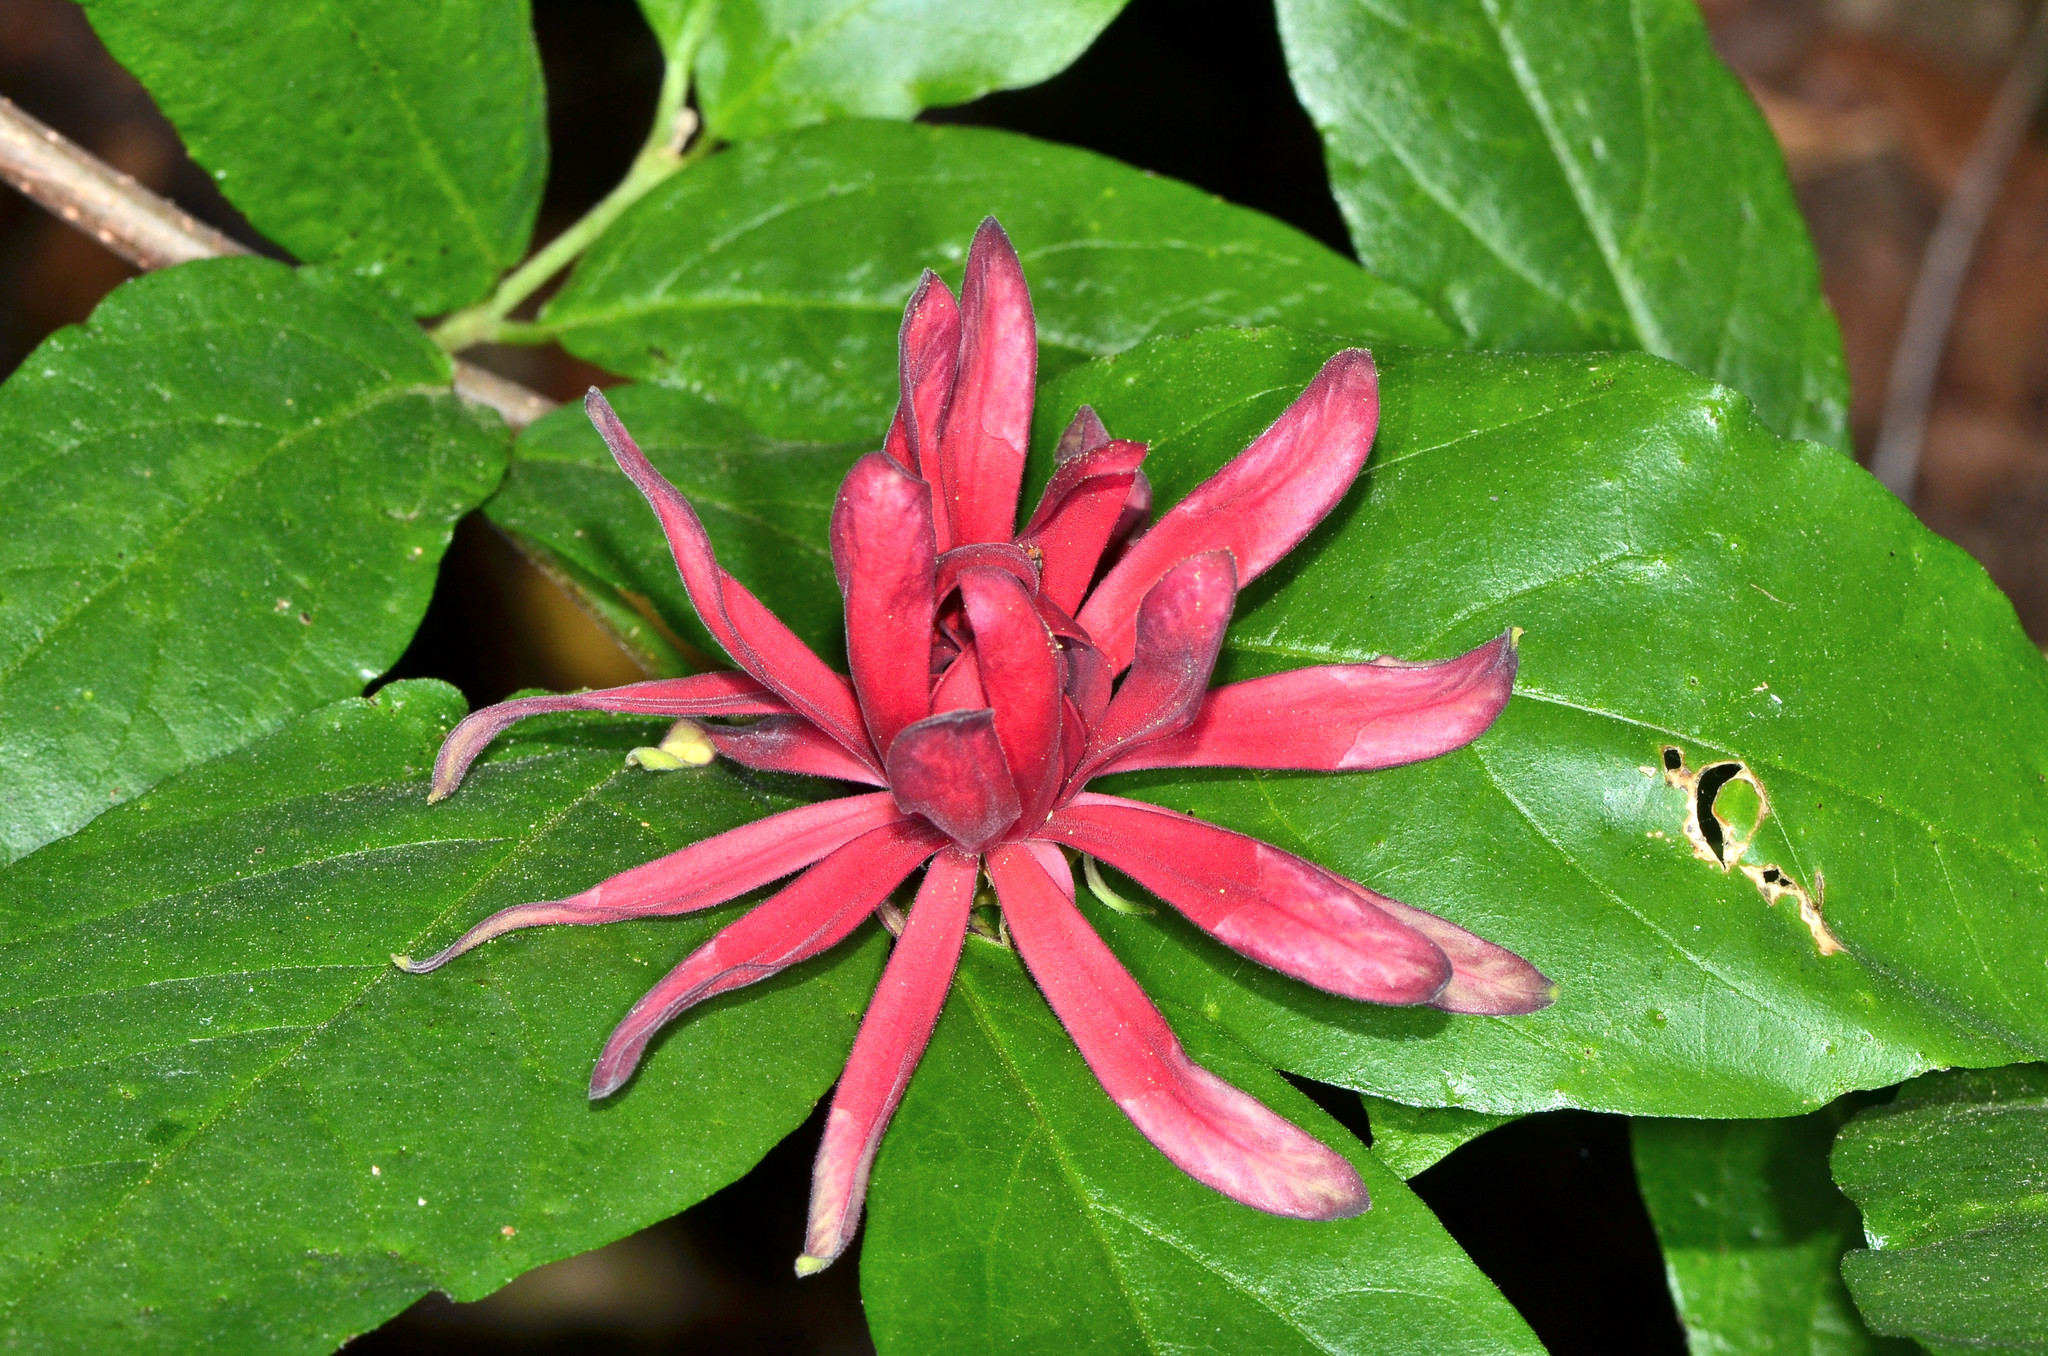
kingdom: Plantae
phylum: Tracheophyta
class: Magnoliopsida
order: Laurales
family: Calycanthaceae
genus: Calycanthus
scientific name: Calycanthus occidentalis
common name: California spicebush
